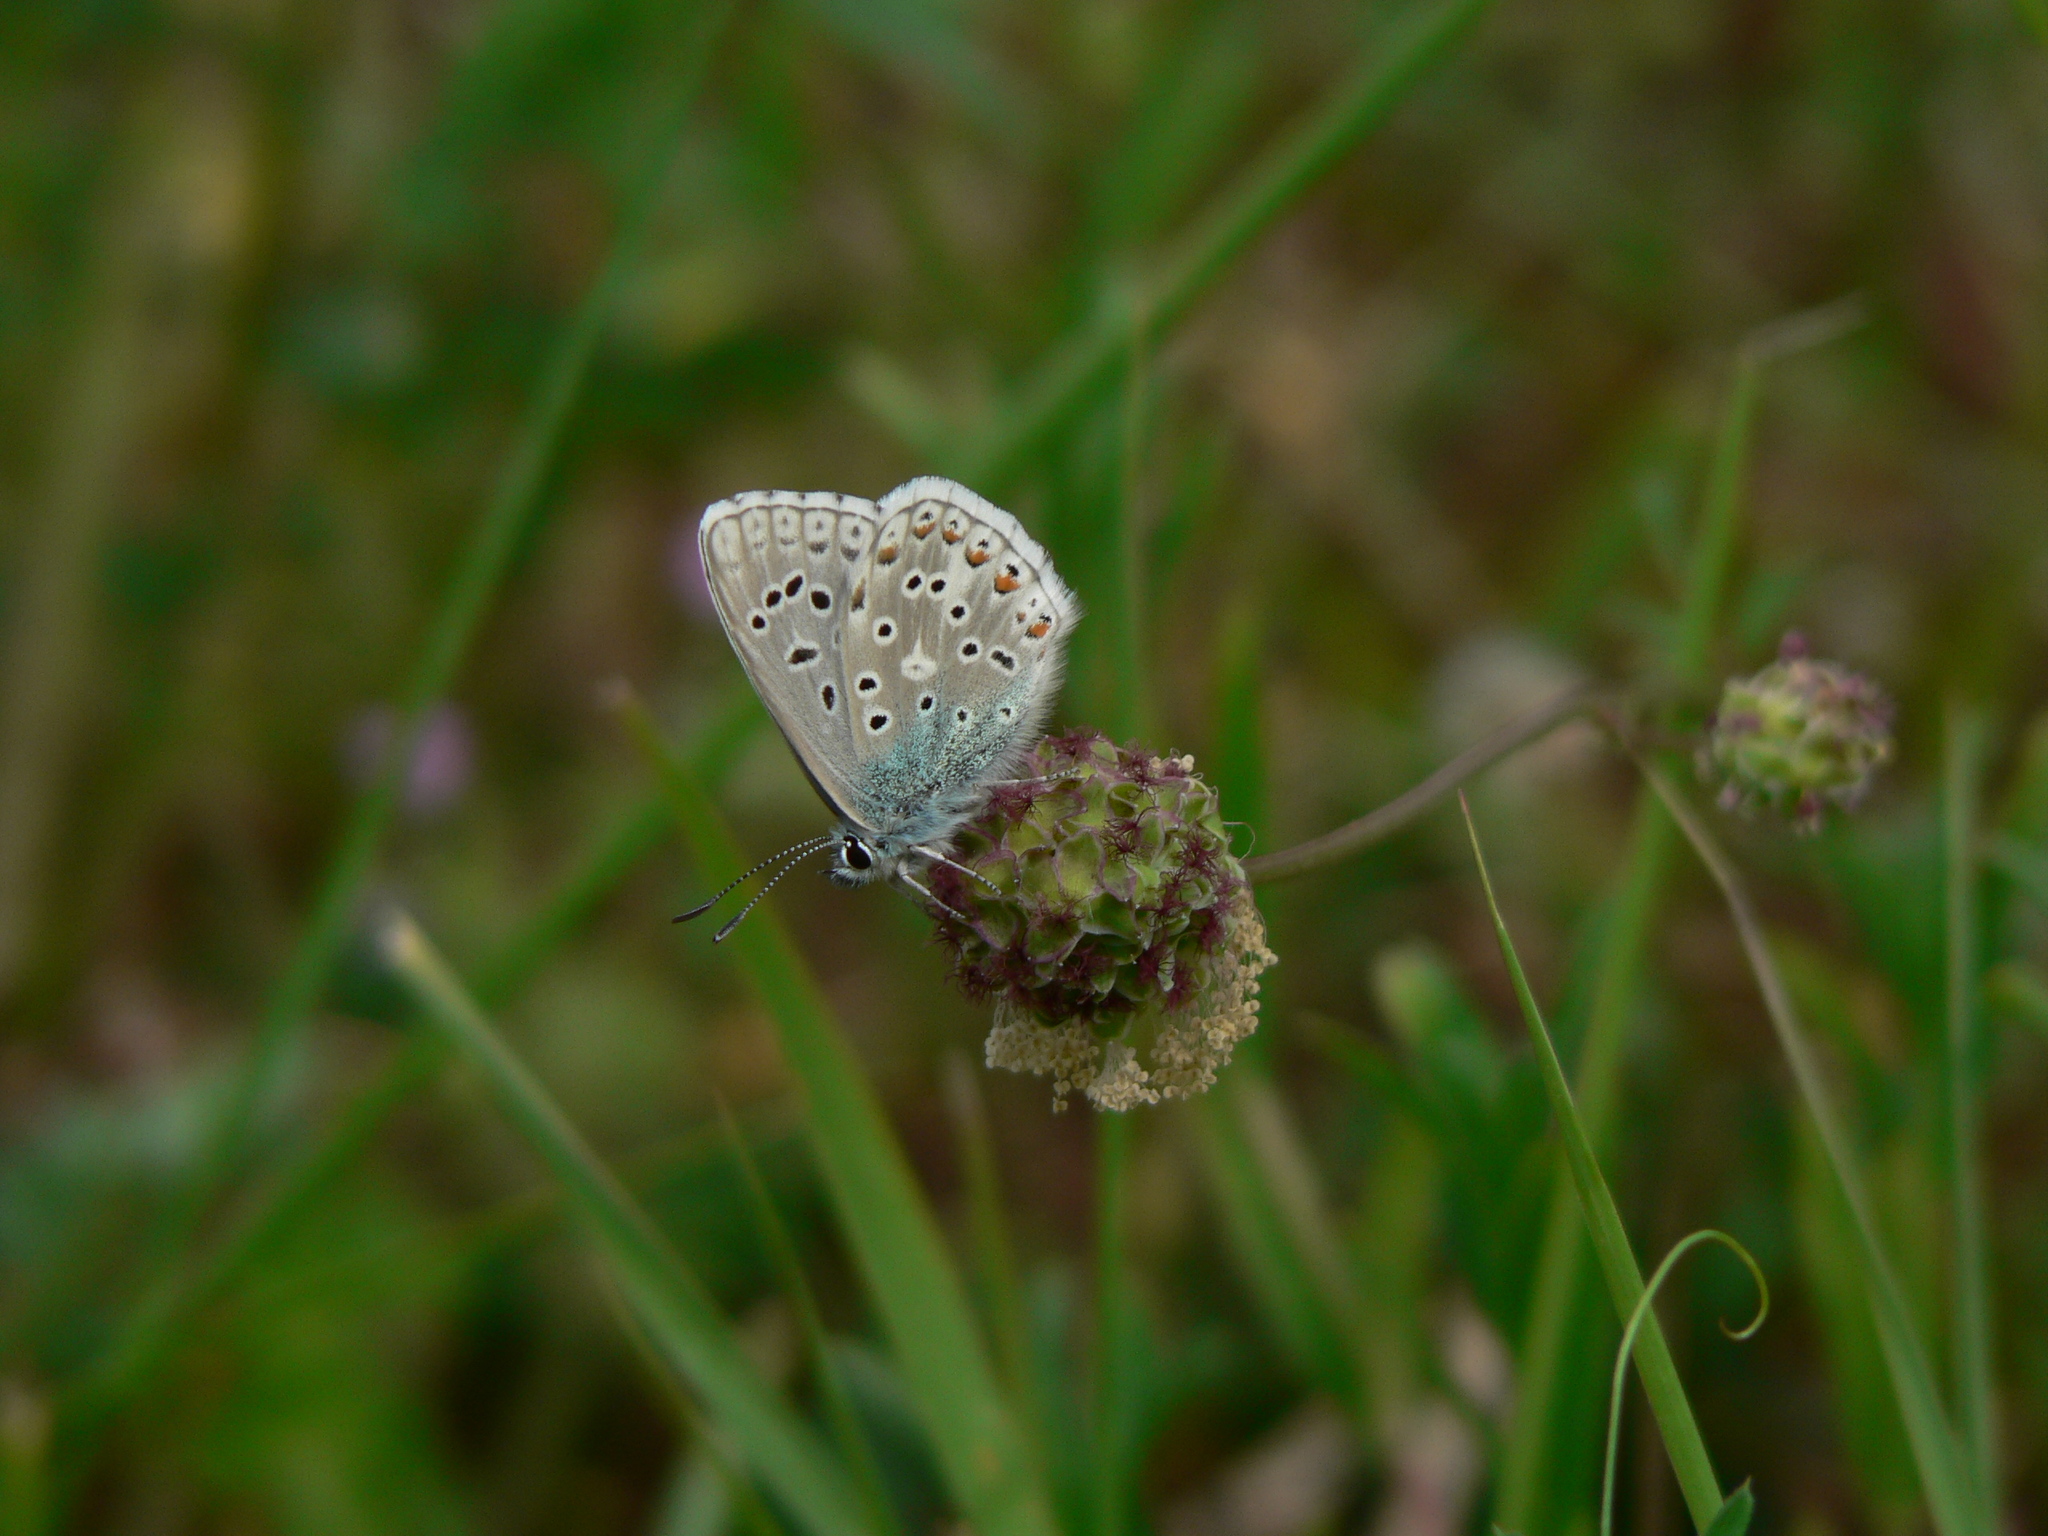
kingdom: Animalia
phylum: Arthropoda
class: Insecta
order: Lepidoptera
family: Lycaenidae
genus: Lysandra
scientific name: Lysandra bellargus
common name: Adonis blue
